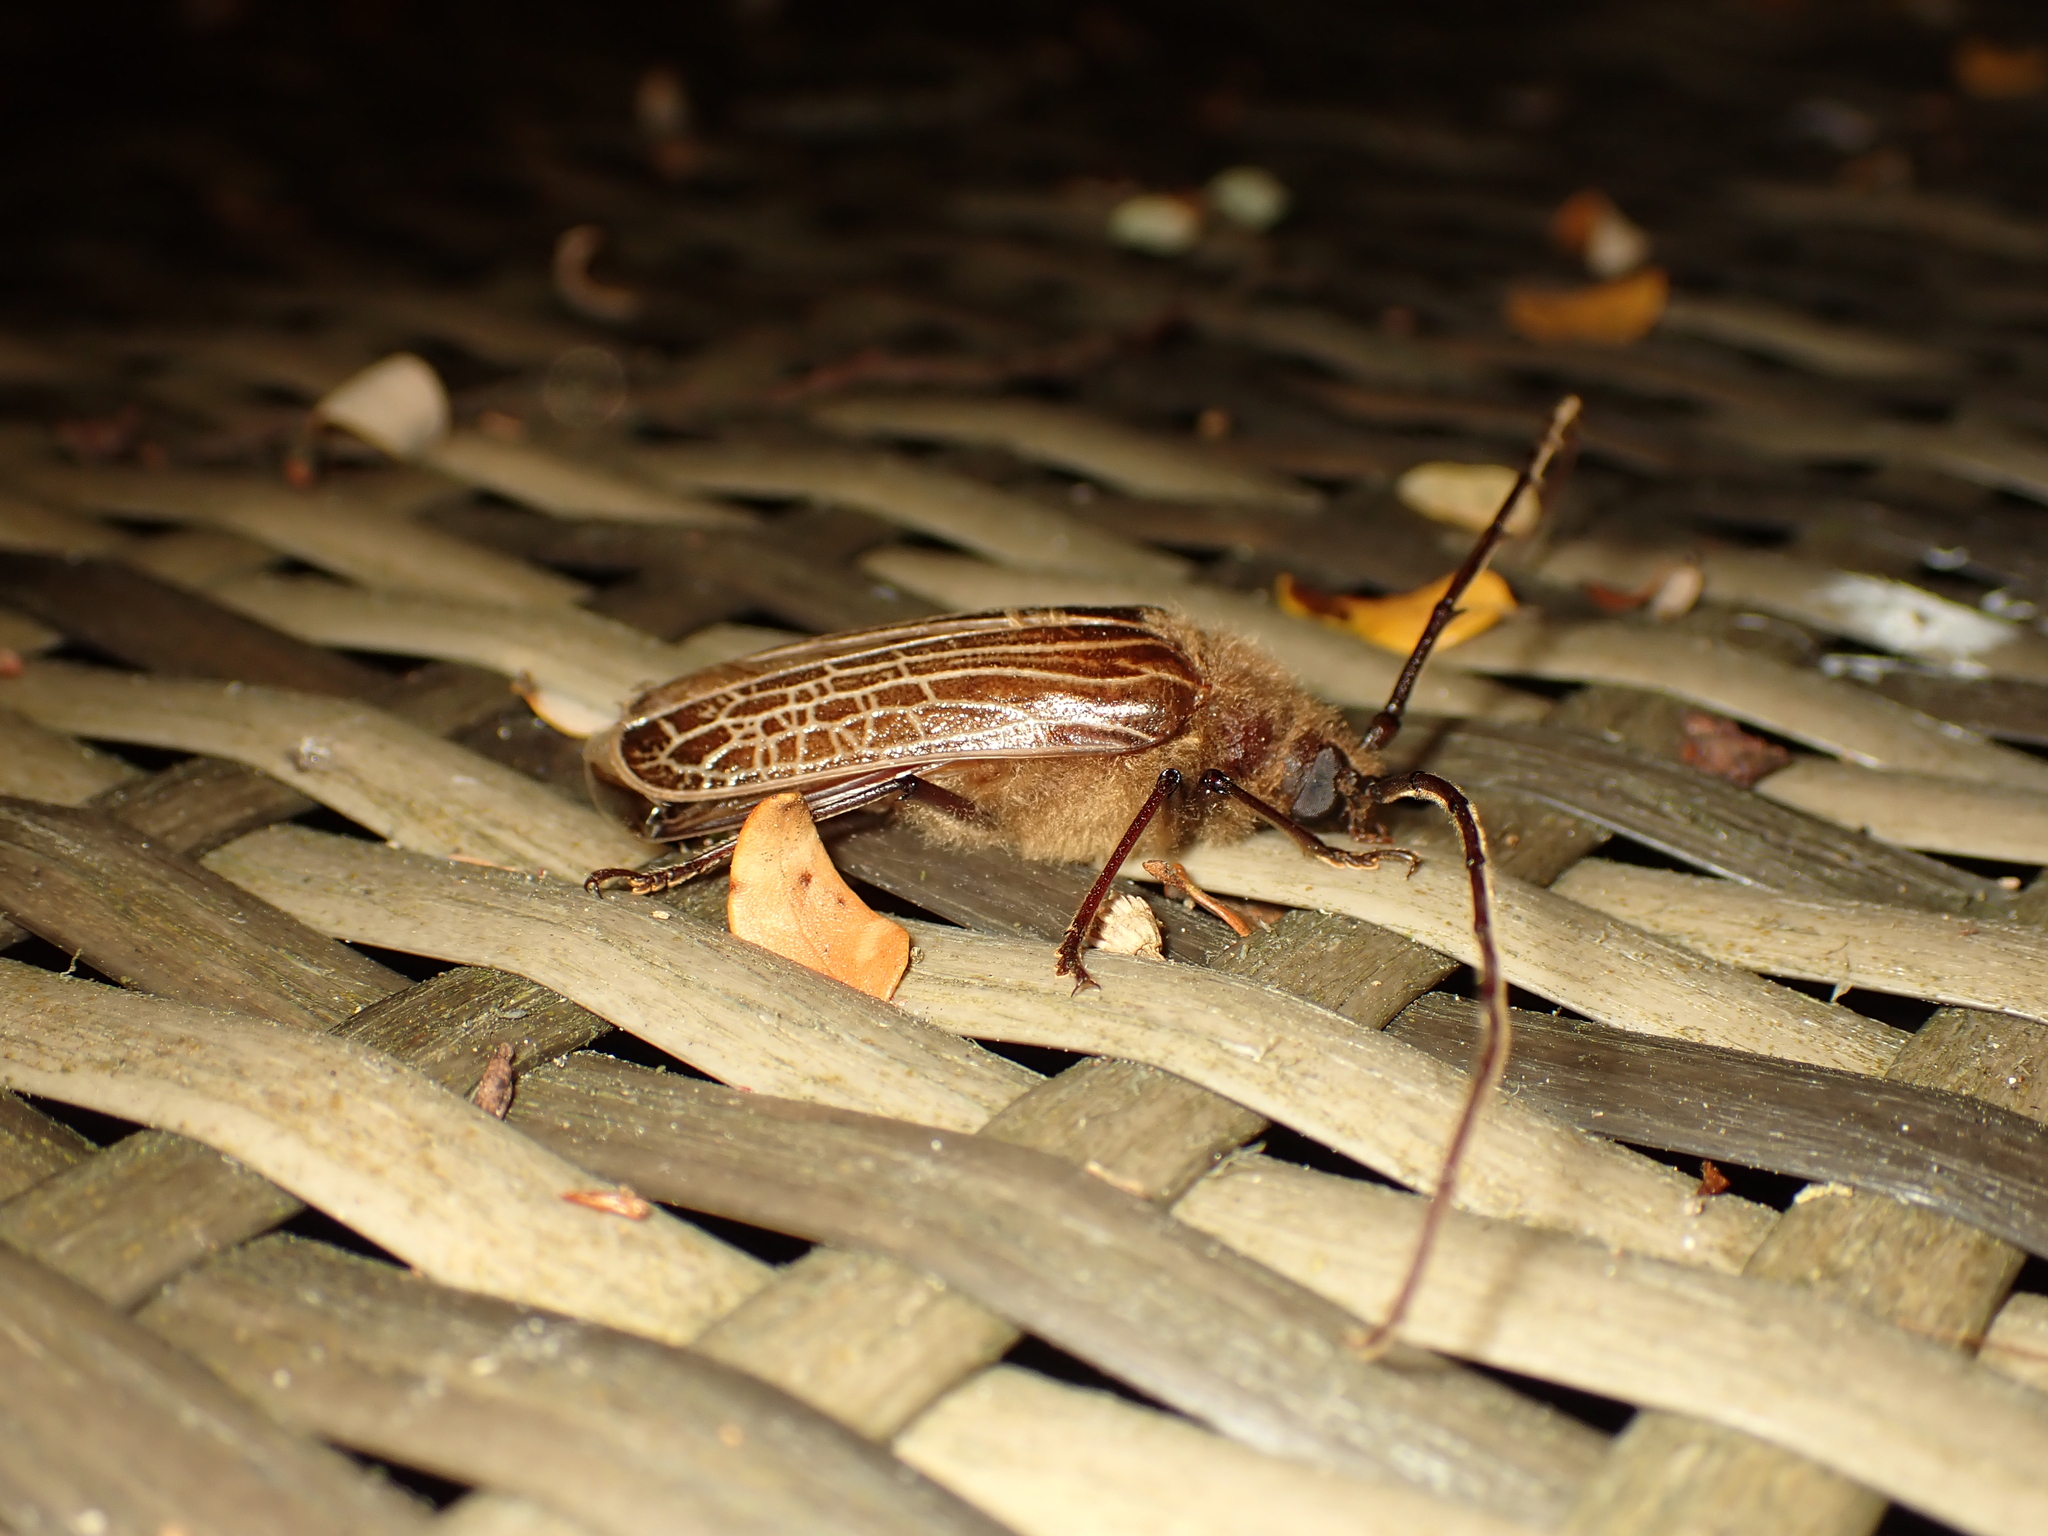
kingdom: Animalia
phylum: Arthropoda
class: Insecta
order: Coleoptera
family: Cerambycidae
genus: Prionoplus
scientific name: Prionoplus reticularis
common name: Huhu beetle
